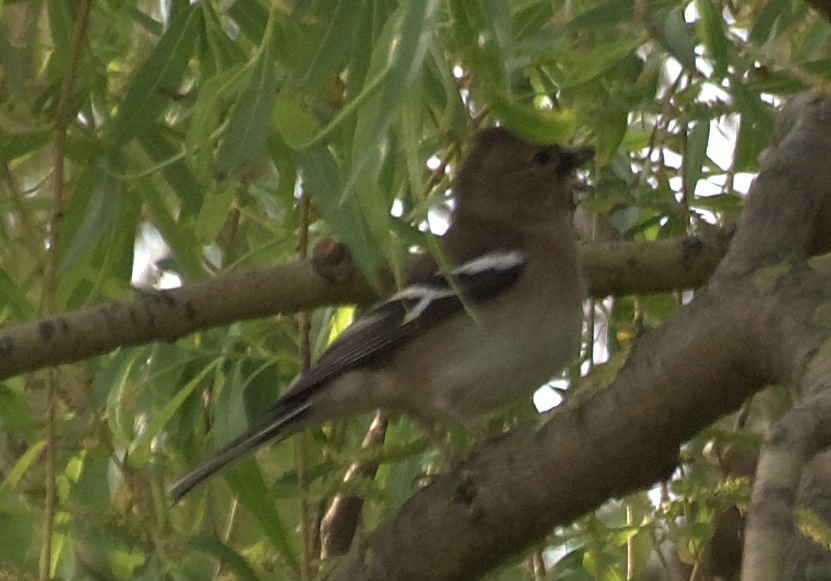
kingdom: Animalia
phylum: Chordata
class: Aves
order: Passeriformes
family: Fringillidae
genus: Fringilla
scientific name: Fringilla coelebs
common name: Common chaffinch
